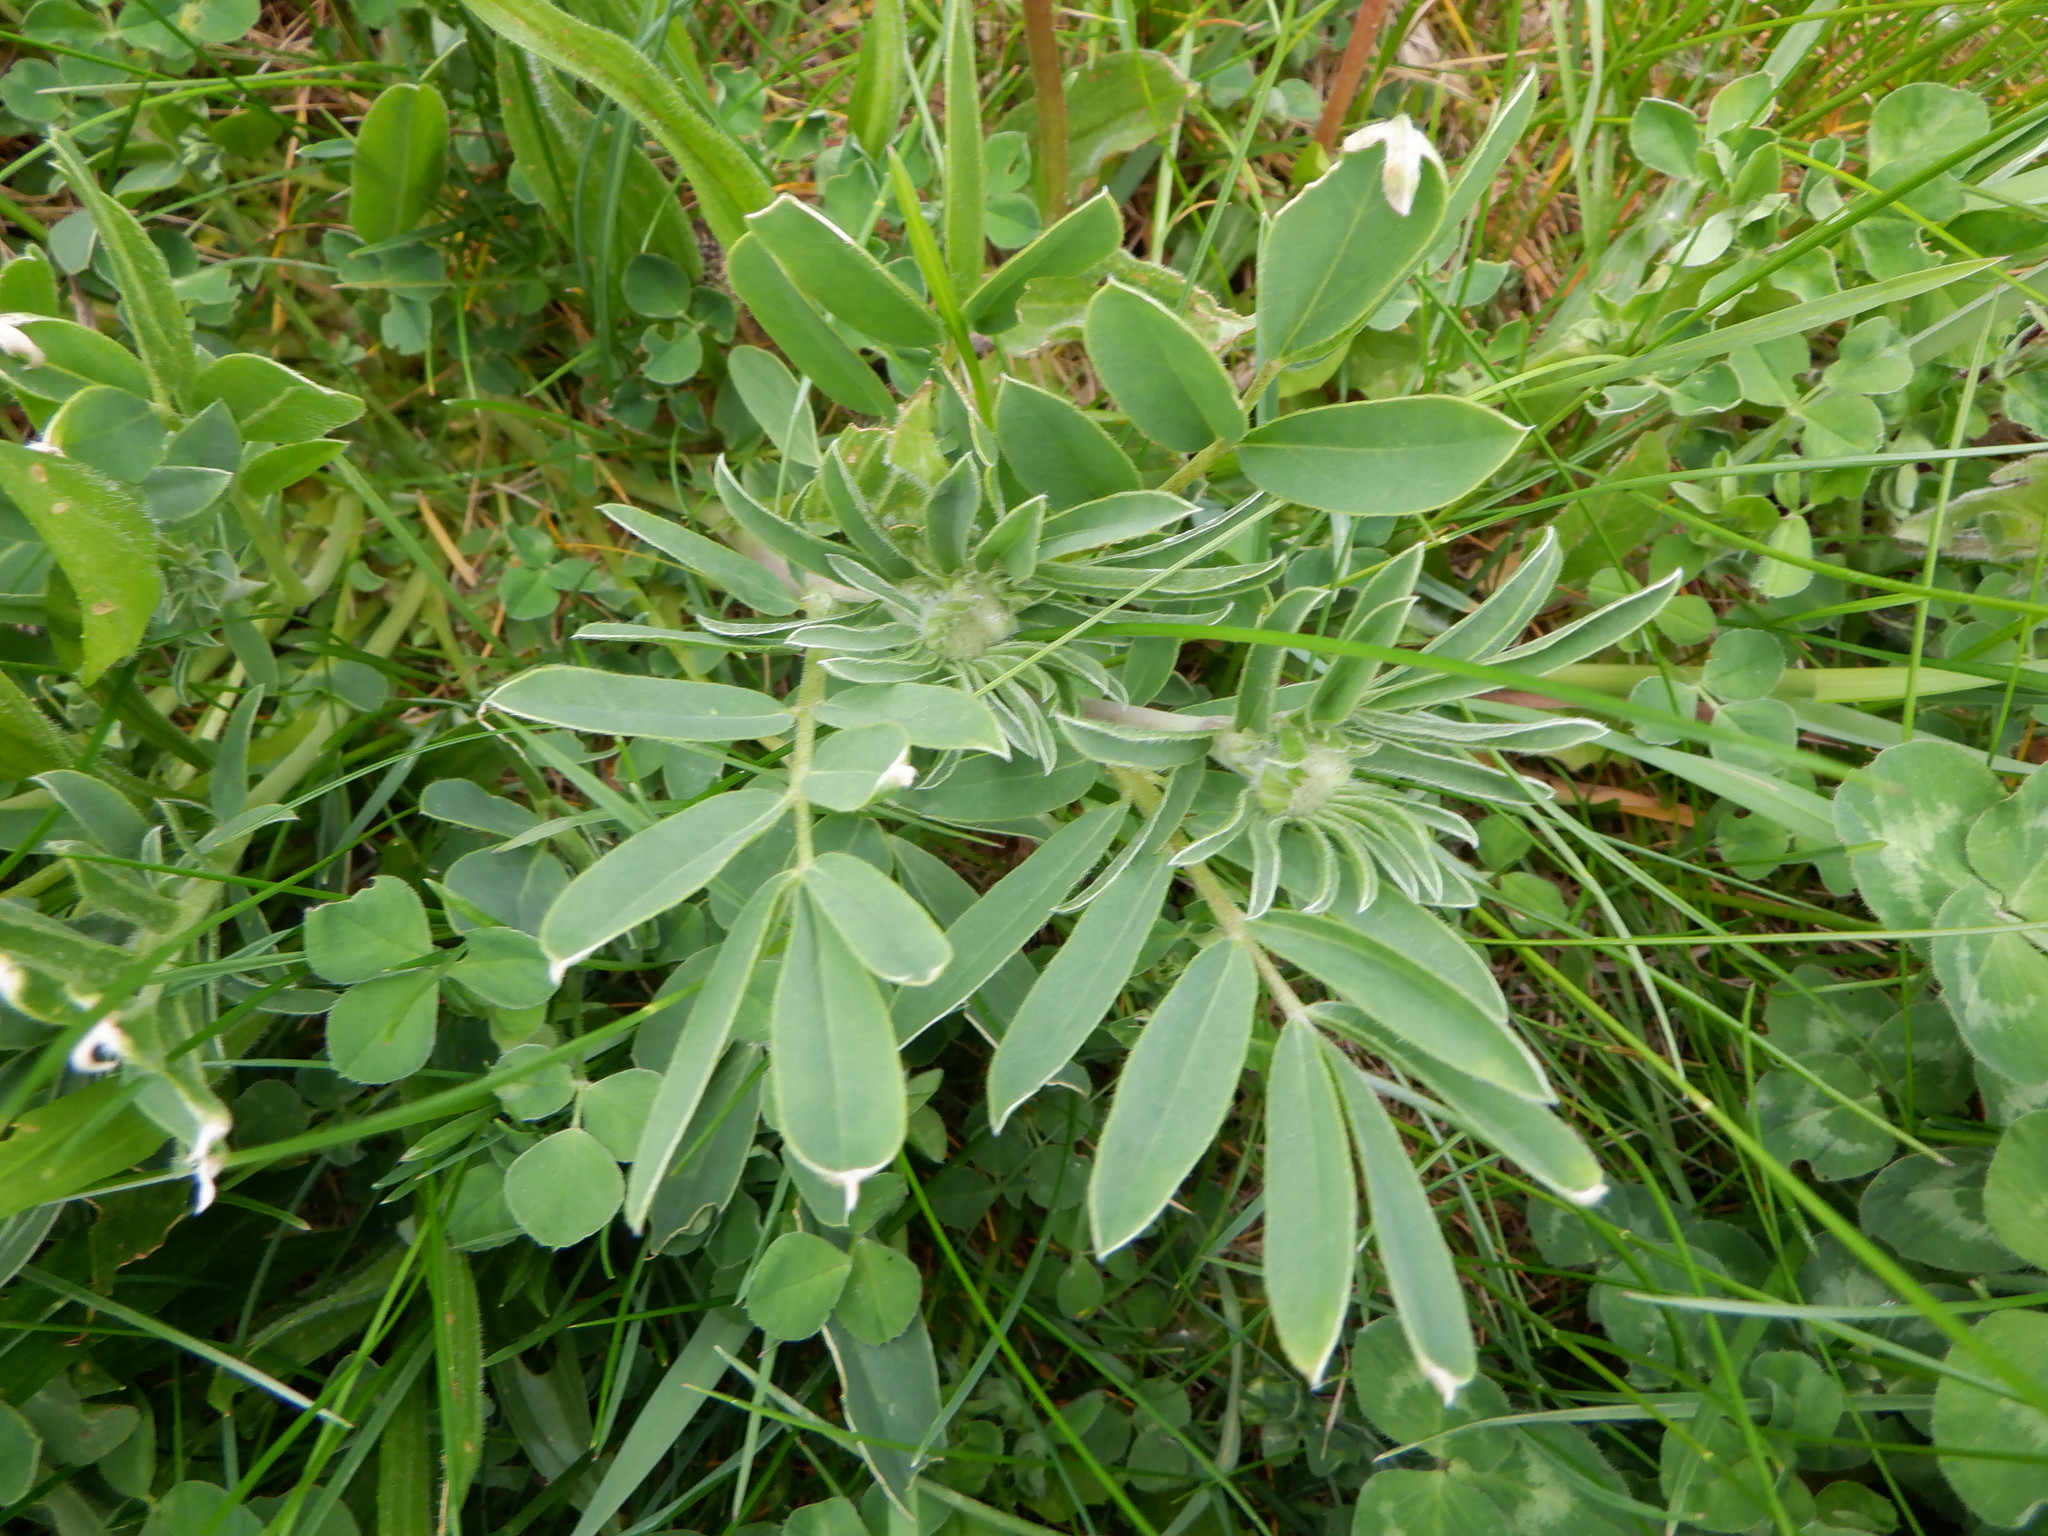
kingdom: Plantae
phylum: Tracheophyta
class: Magnoliopsida
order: Fabales
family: Fabaceae
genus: Anthyllis
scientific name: Anthyllis vulneraria
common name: Kidney vetch
